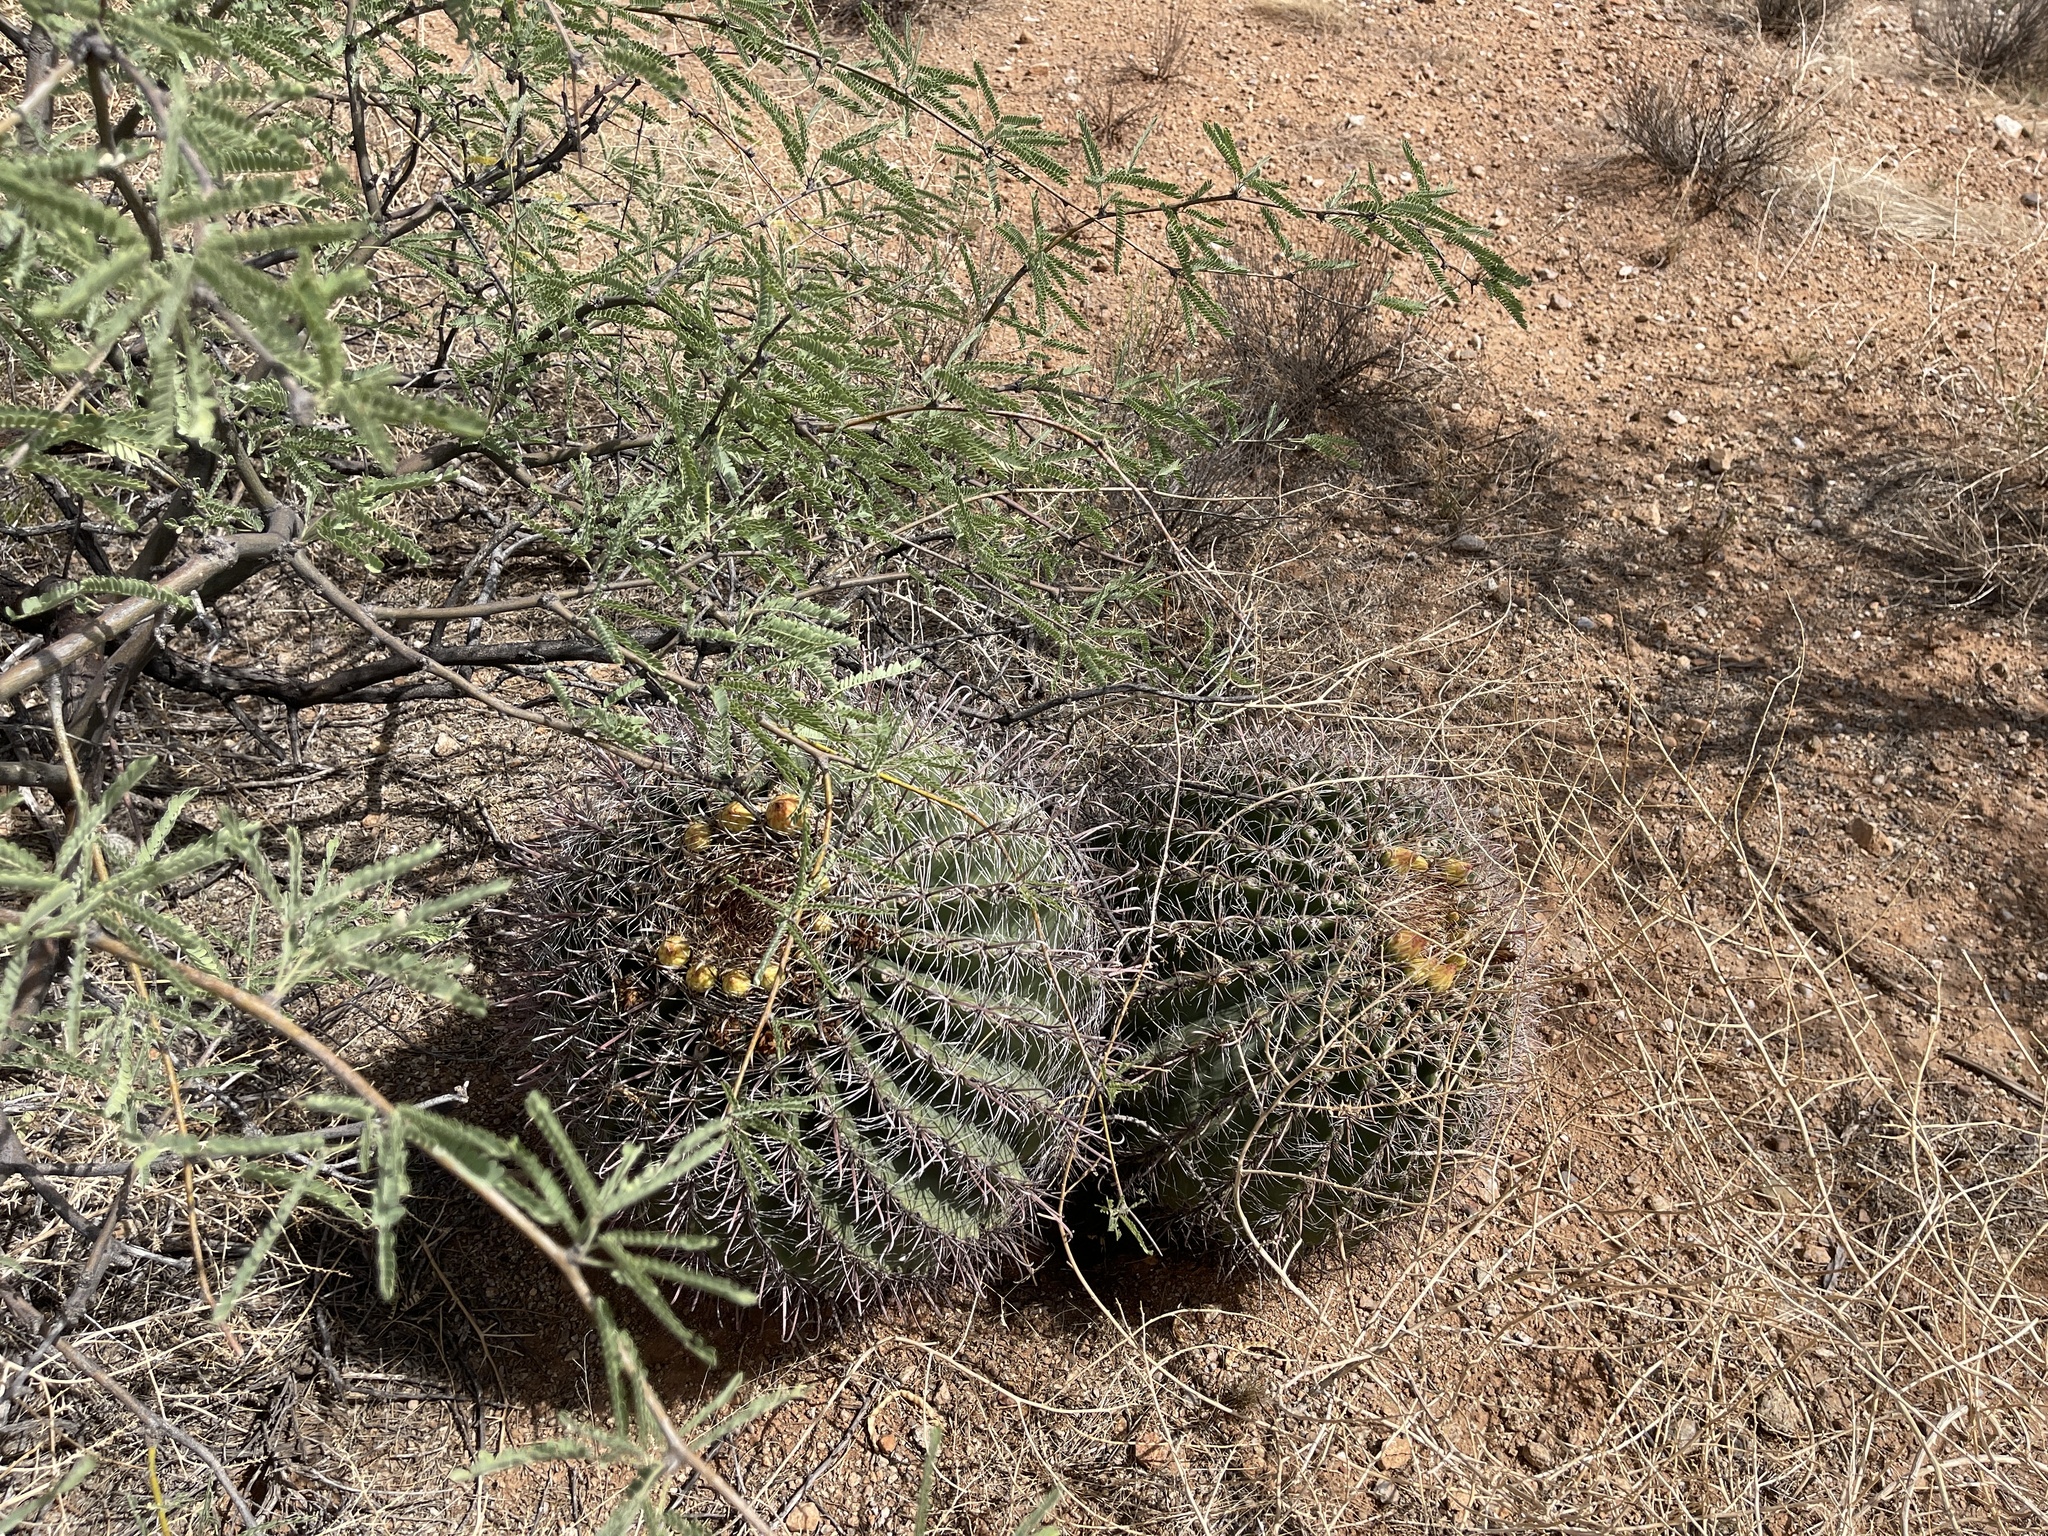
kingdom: Plantae
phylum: Tracheophyta
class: Magnoliopsida
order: Caryophyllales
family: Cactaceae
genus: Ferocactus
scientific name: Ferocactus wislizeni
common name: Candy barrel cactus
